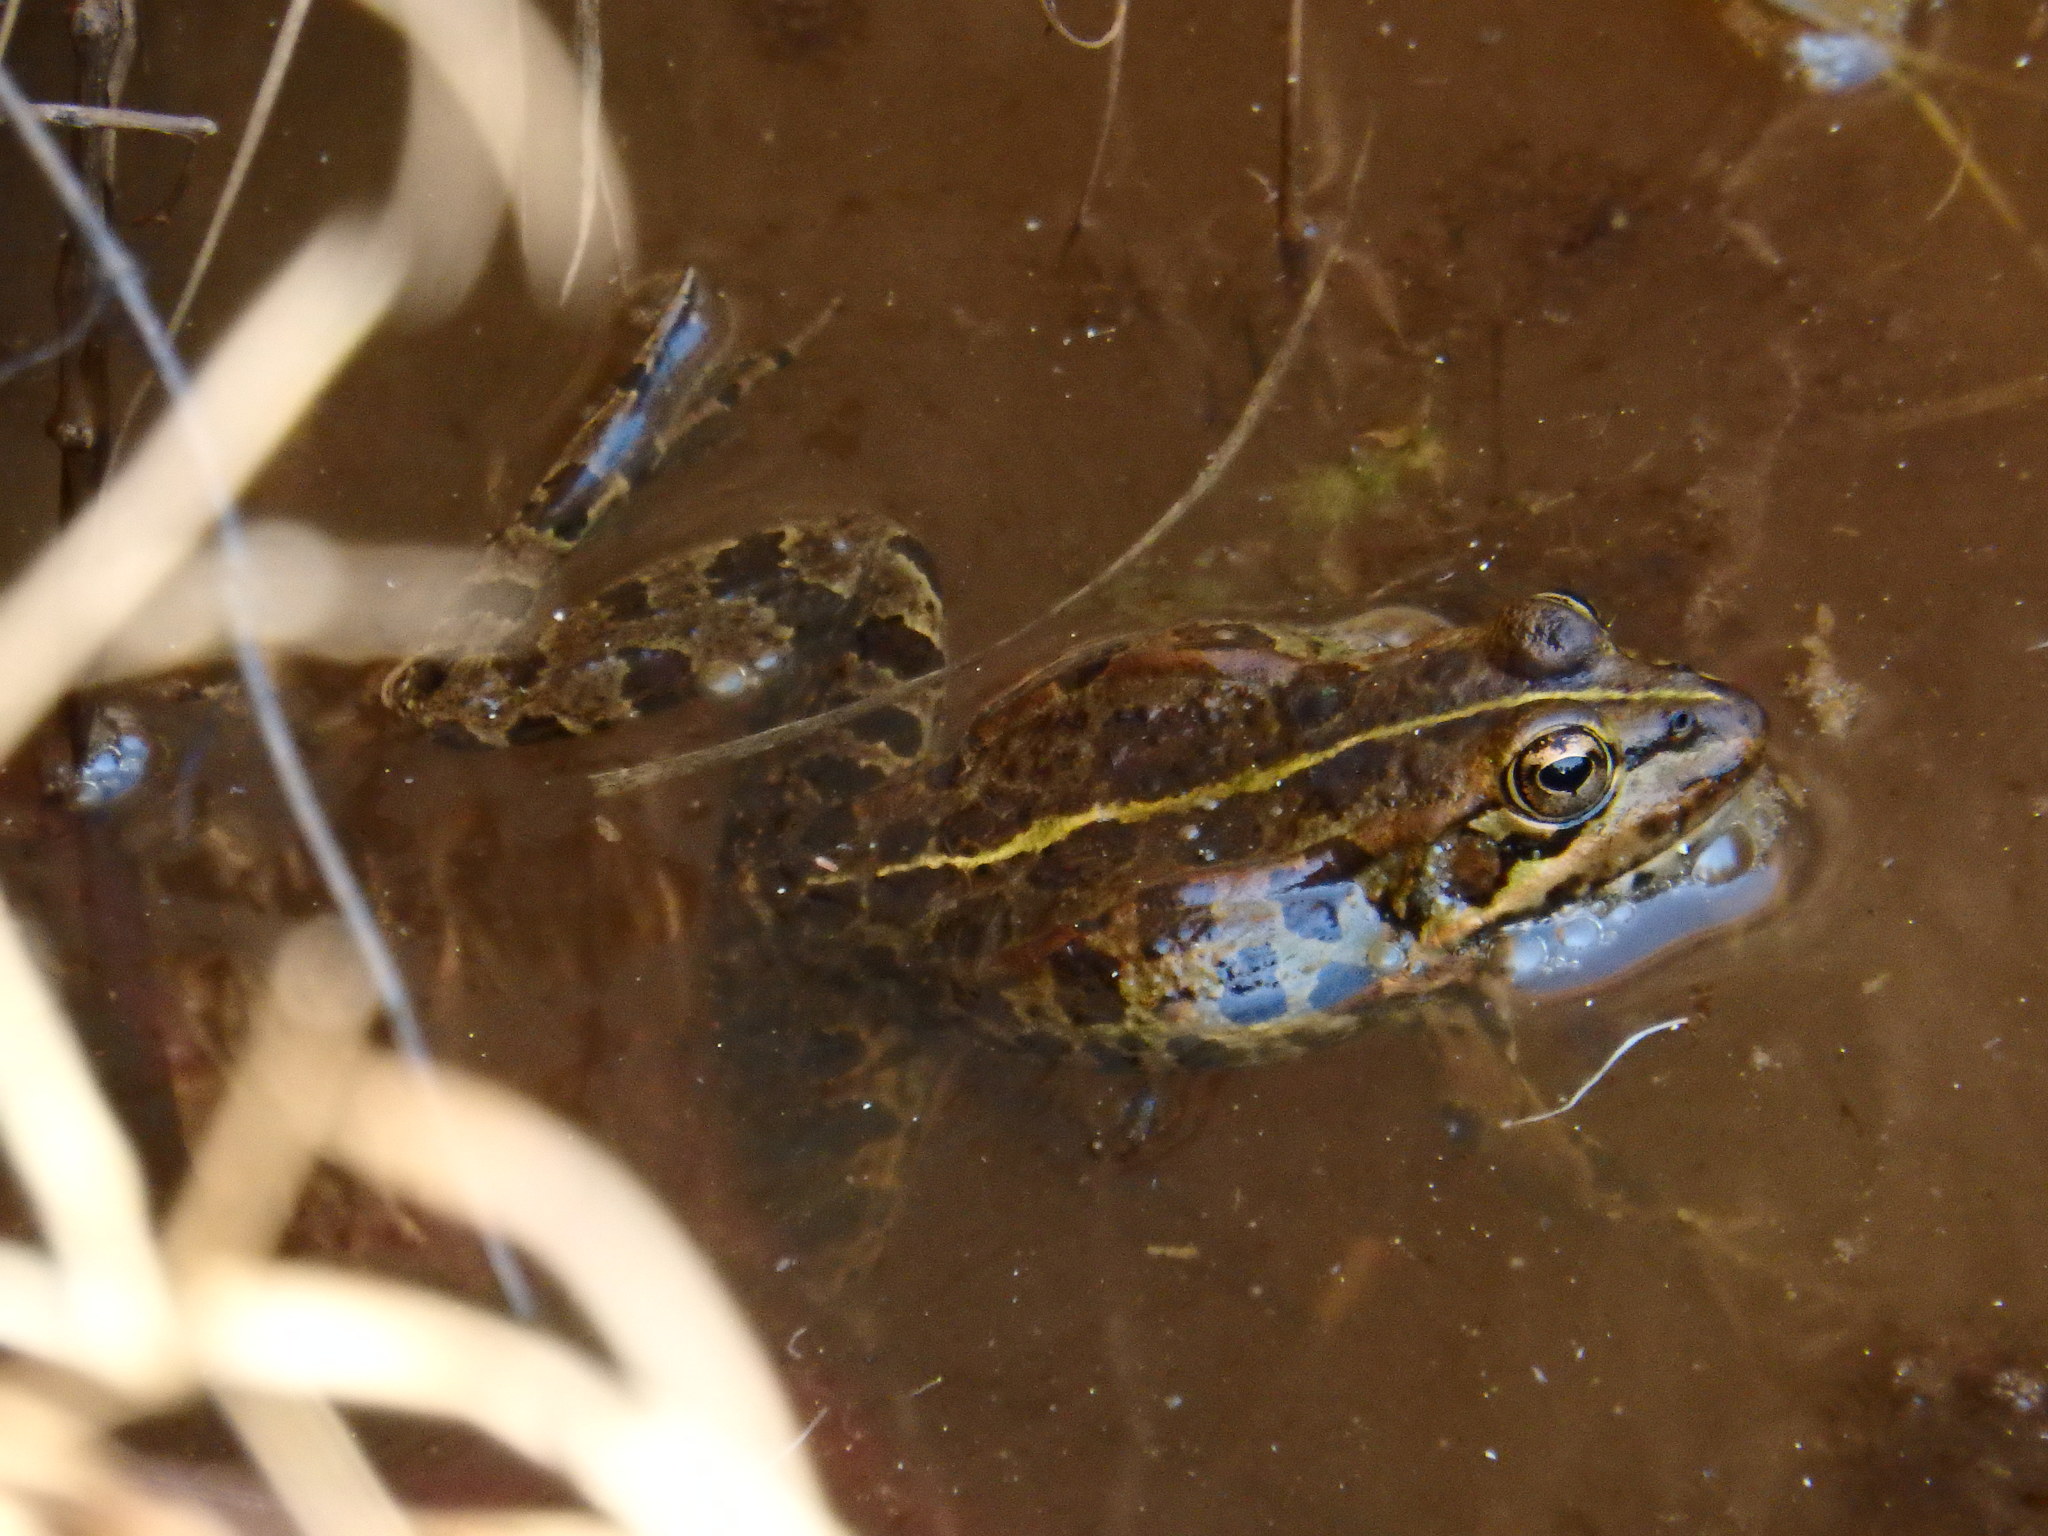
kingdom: Animalia
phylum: Chordata
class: Amphibia
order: Anura
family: Ranidae
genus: Pelophylax
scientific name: Pelophylax perezi
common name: Perez's frog
